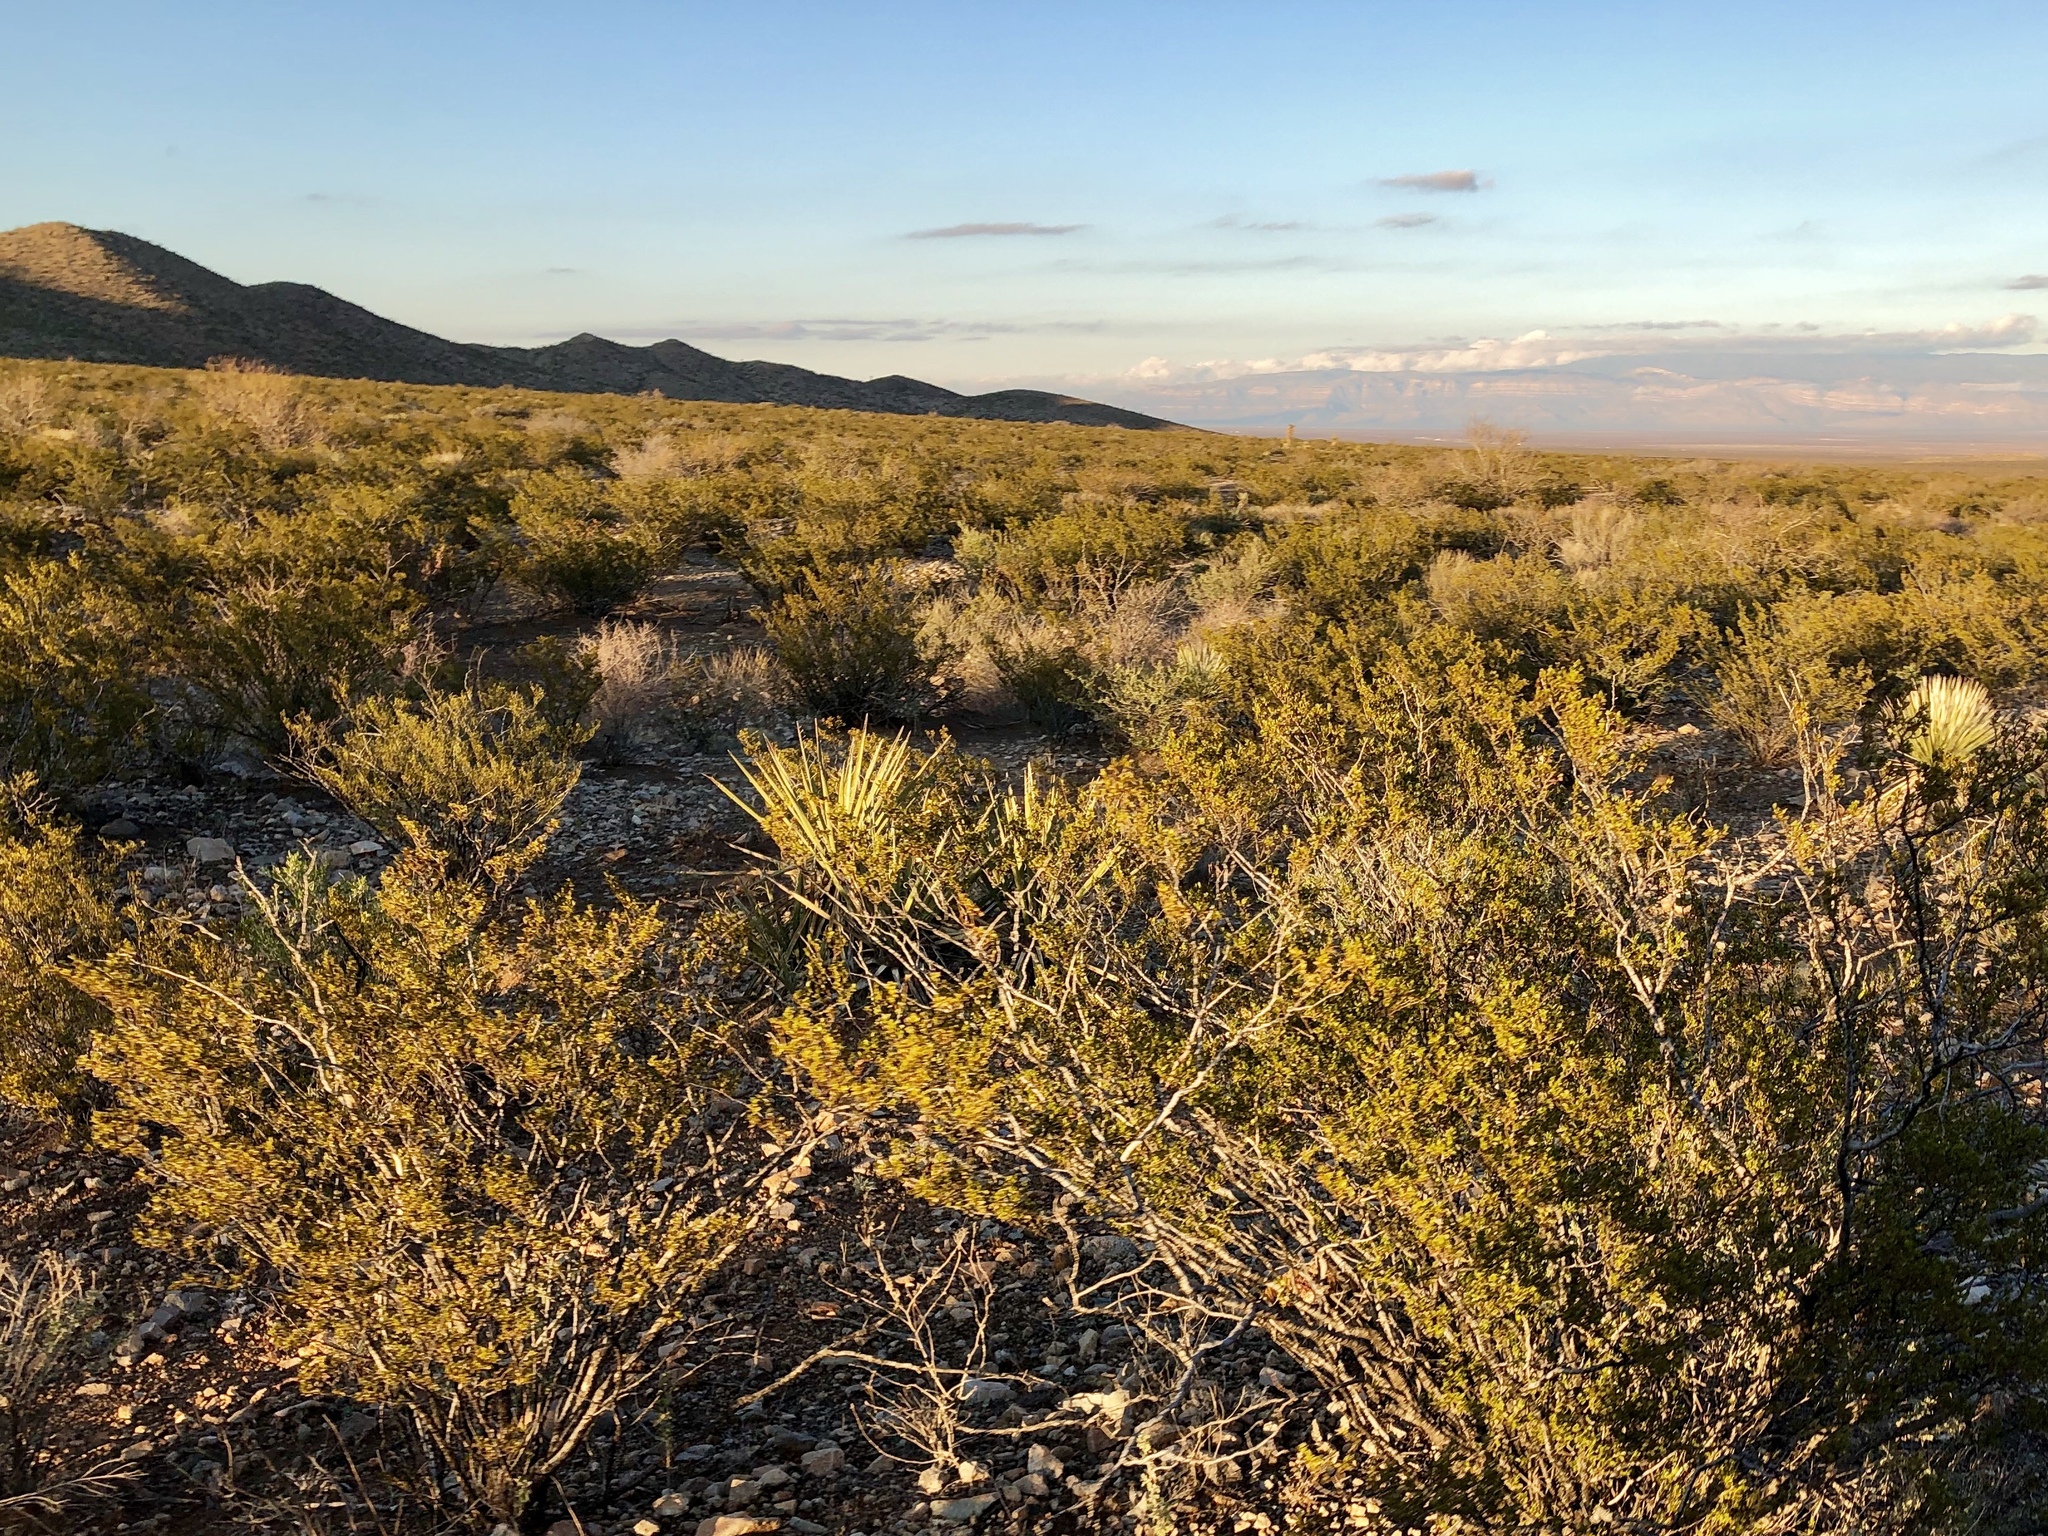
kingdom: Plantae
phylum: Tracheophyta
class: Magnoliopsida
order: Zygophyllales
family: Zygophyllaceae
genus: Larrea
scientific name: Larrea tridentata
